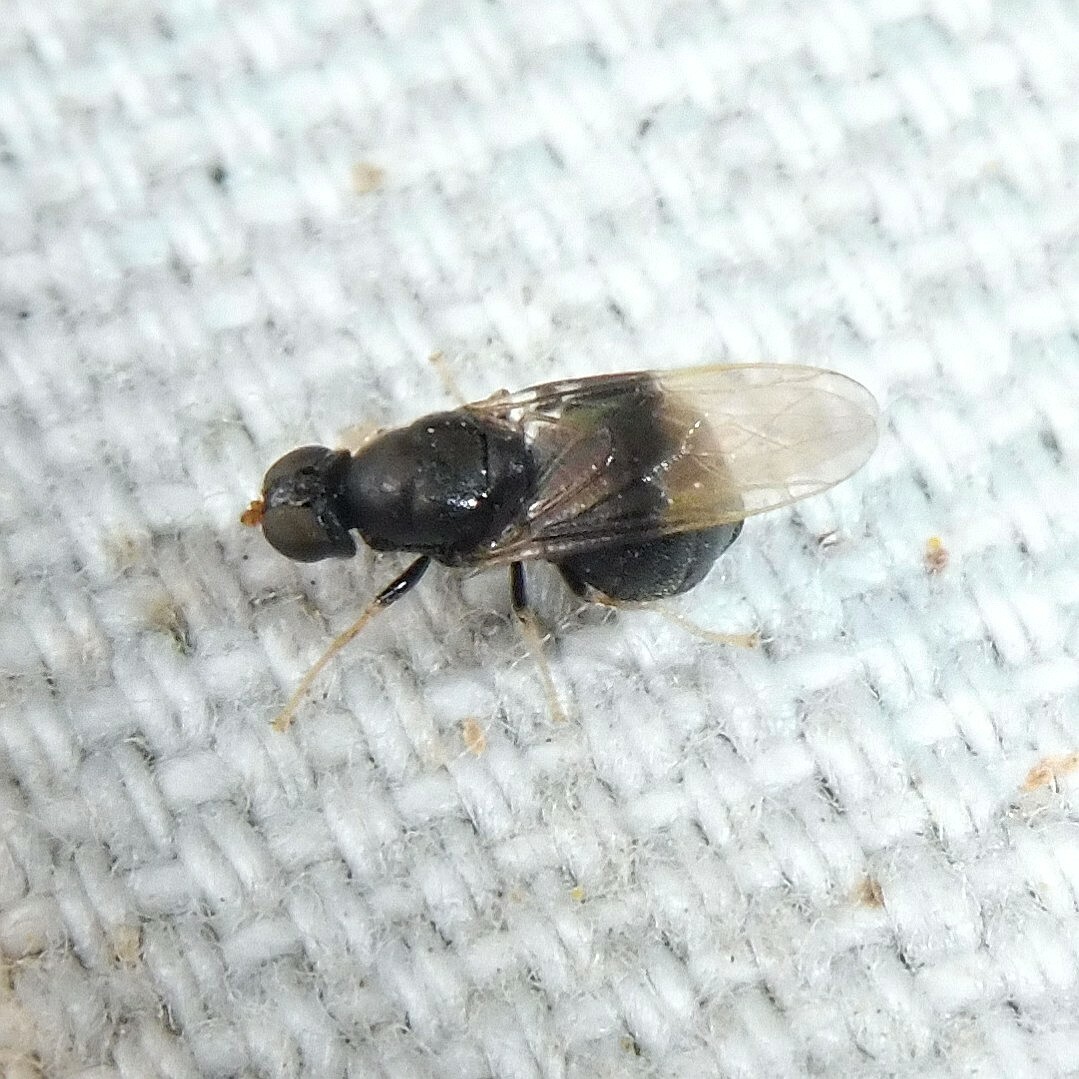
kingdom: Animalia
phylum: Arthropoda
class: Insecta
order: Diptera
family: Stratiomyidae
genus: Pachygaster
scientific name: Pachygaster atra
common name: Dark-winged black
